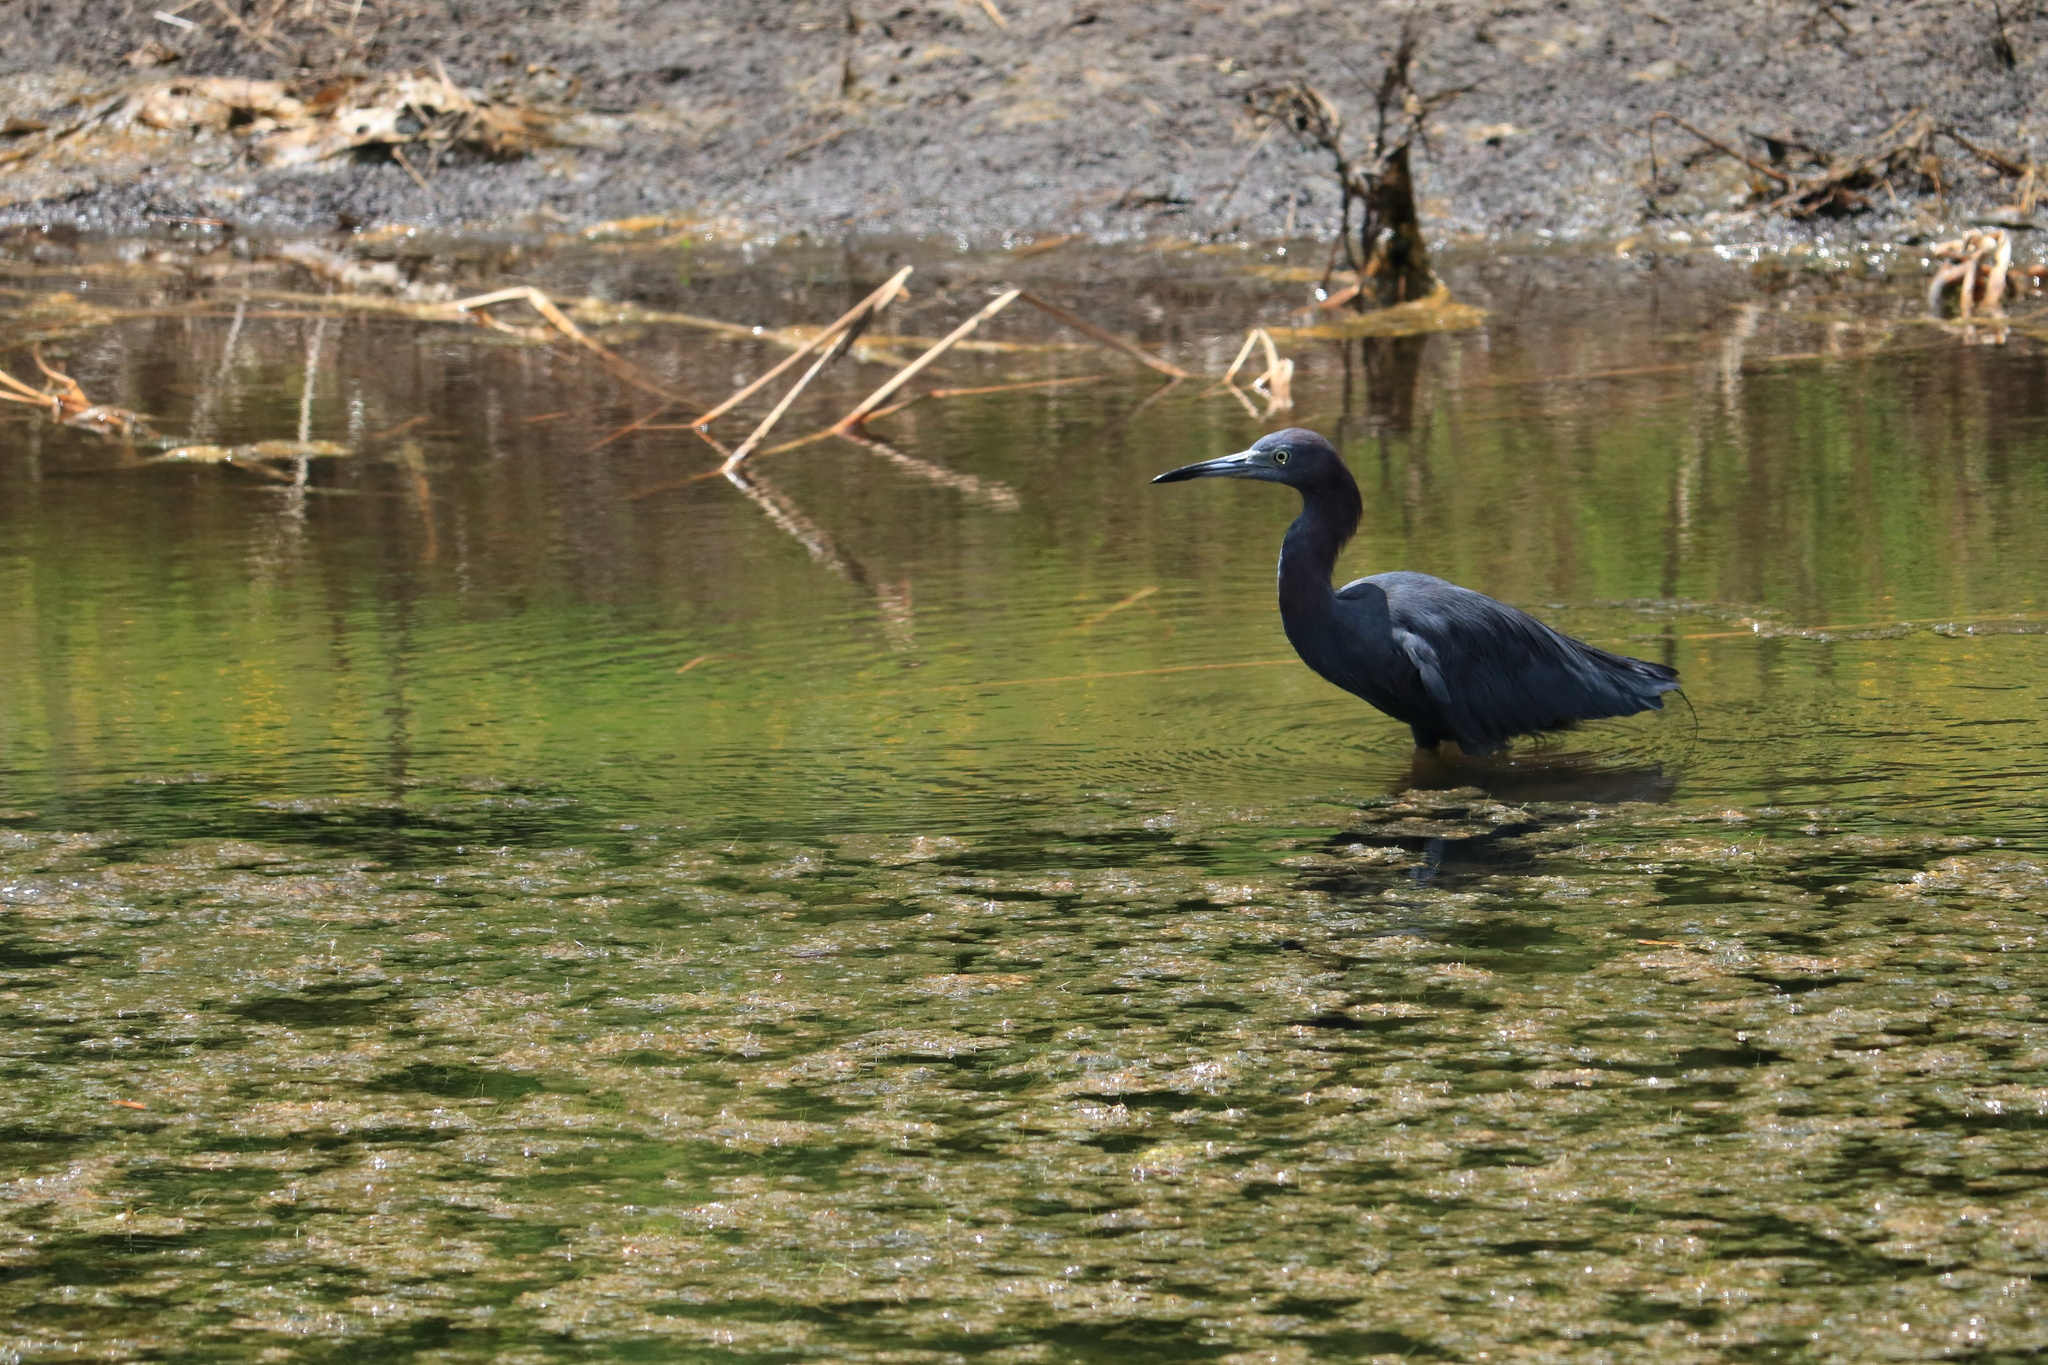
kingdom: Animalia
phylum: Chordata
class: Aves
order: Pelecaniformes
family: Ardeidae
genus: Egretta
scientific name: Egretta caerulea
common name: Little blue heron
